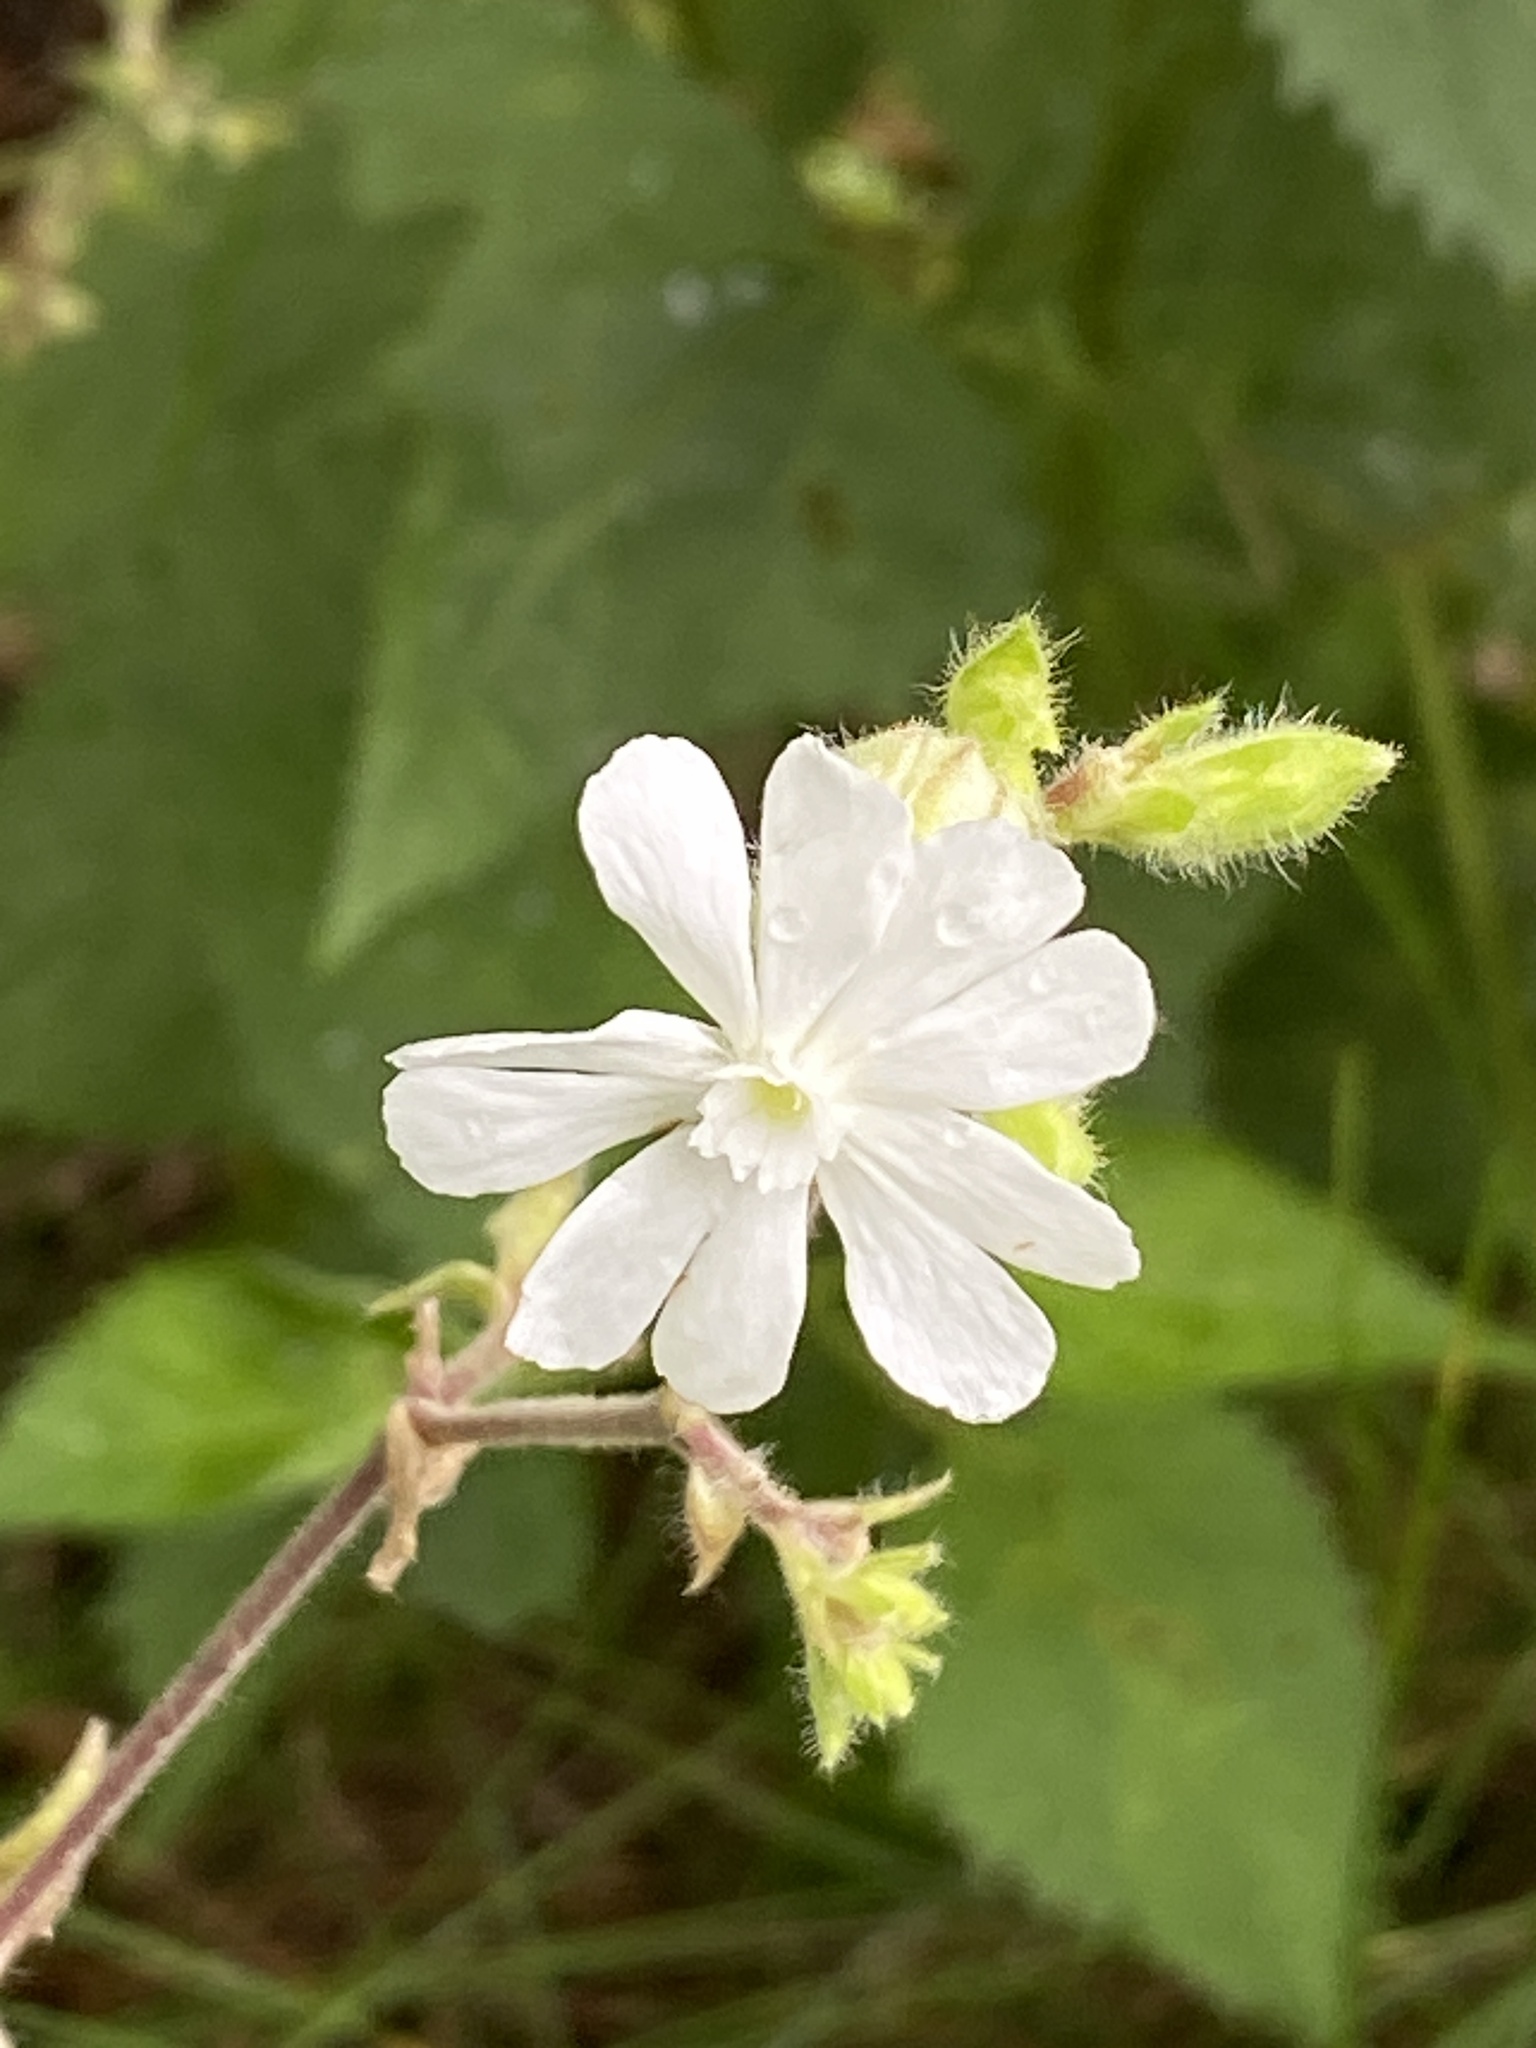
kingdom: Plantae
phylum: Tracheophyta
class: Magnoliopsida
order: Caryophyllales
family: Caryophyllaceae
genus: Silene
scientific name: Silene latifolia
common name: White campion
